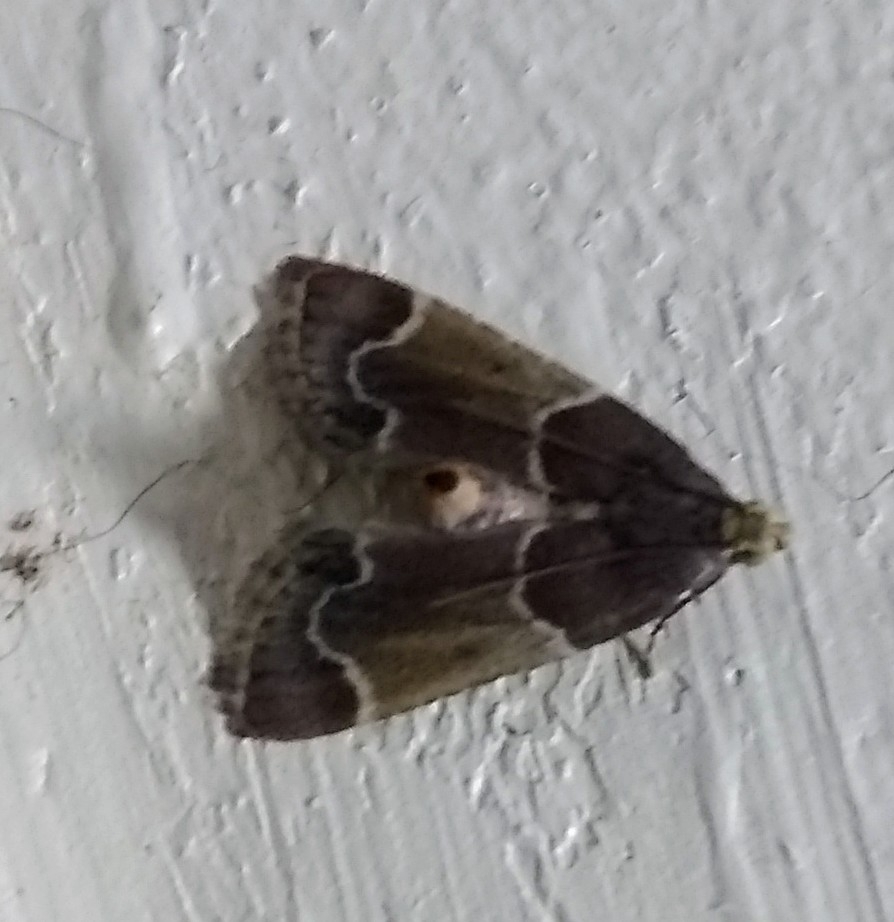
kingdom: Animalia
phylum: Arthropoda
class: Insecta
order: Lepidoptera
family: Pyralidae
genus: Pyralis
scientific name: Pyralis farinalis
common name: Meal moth
